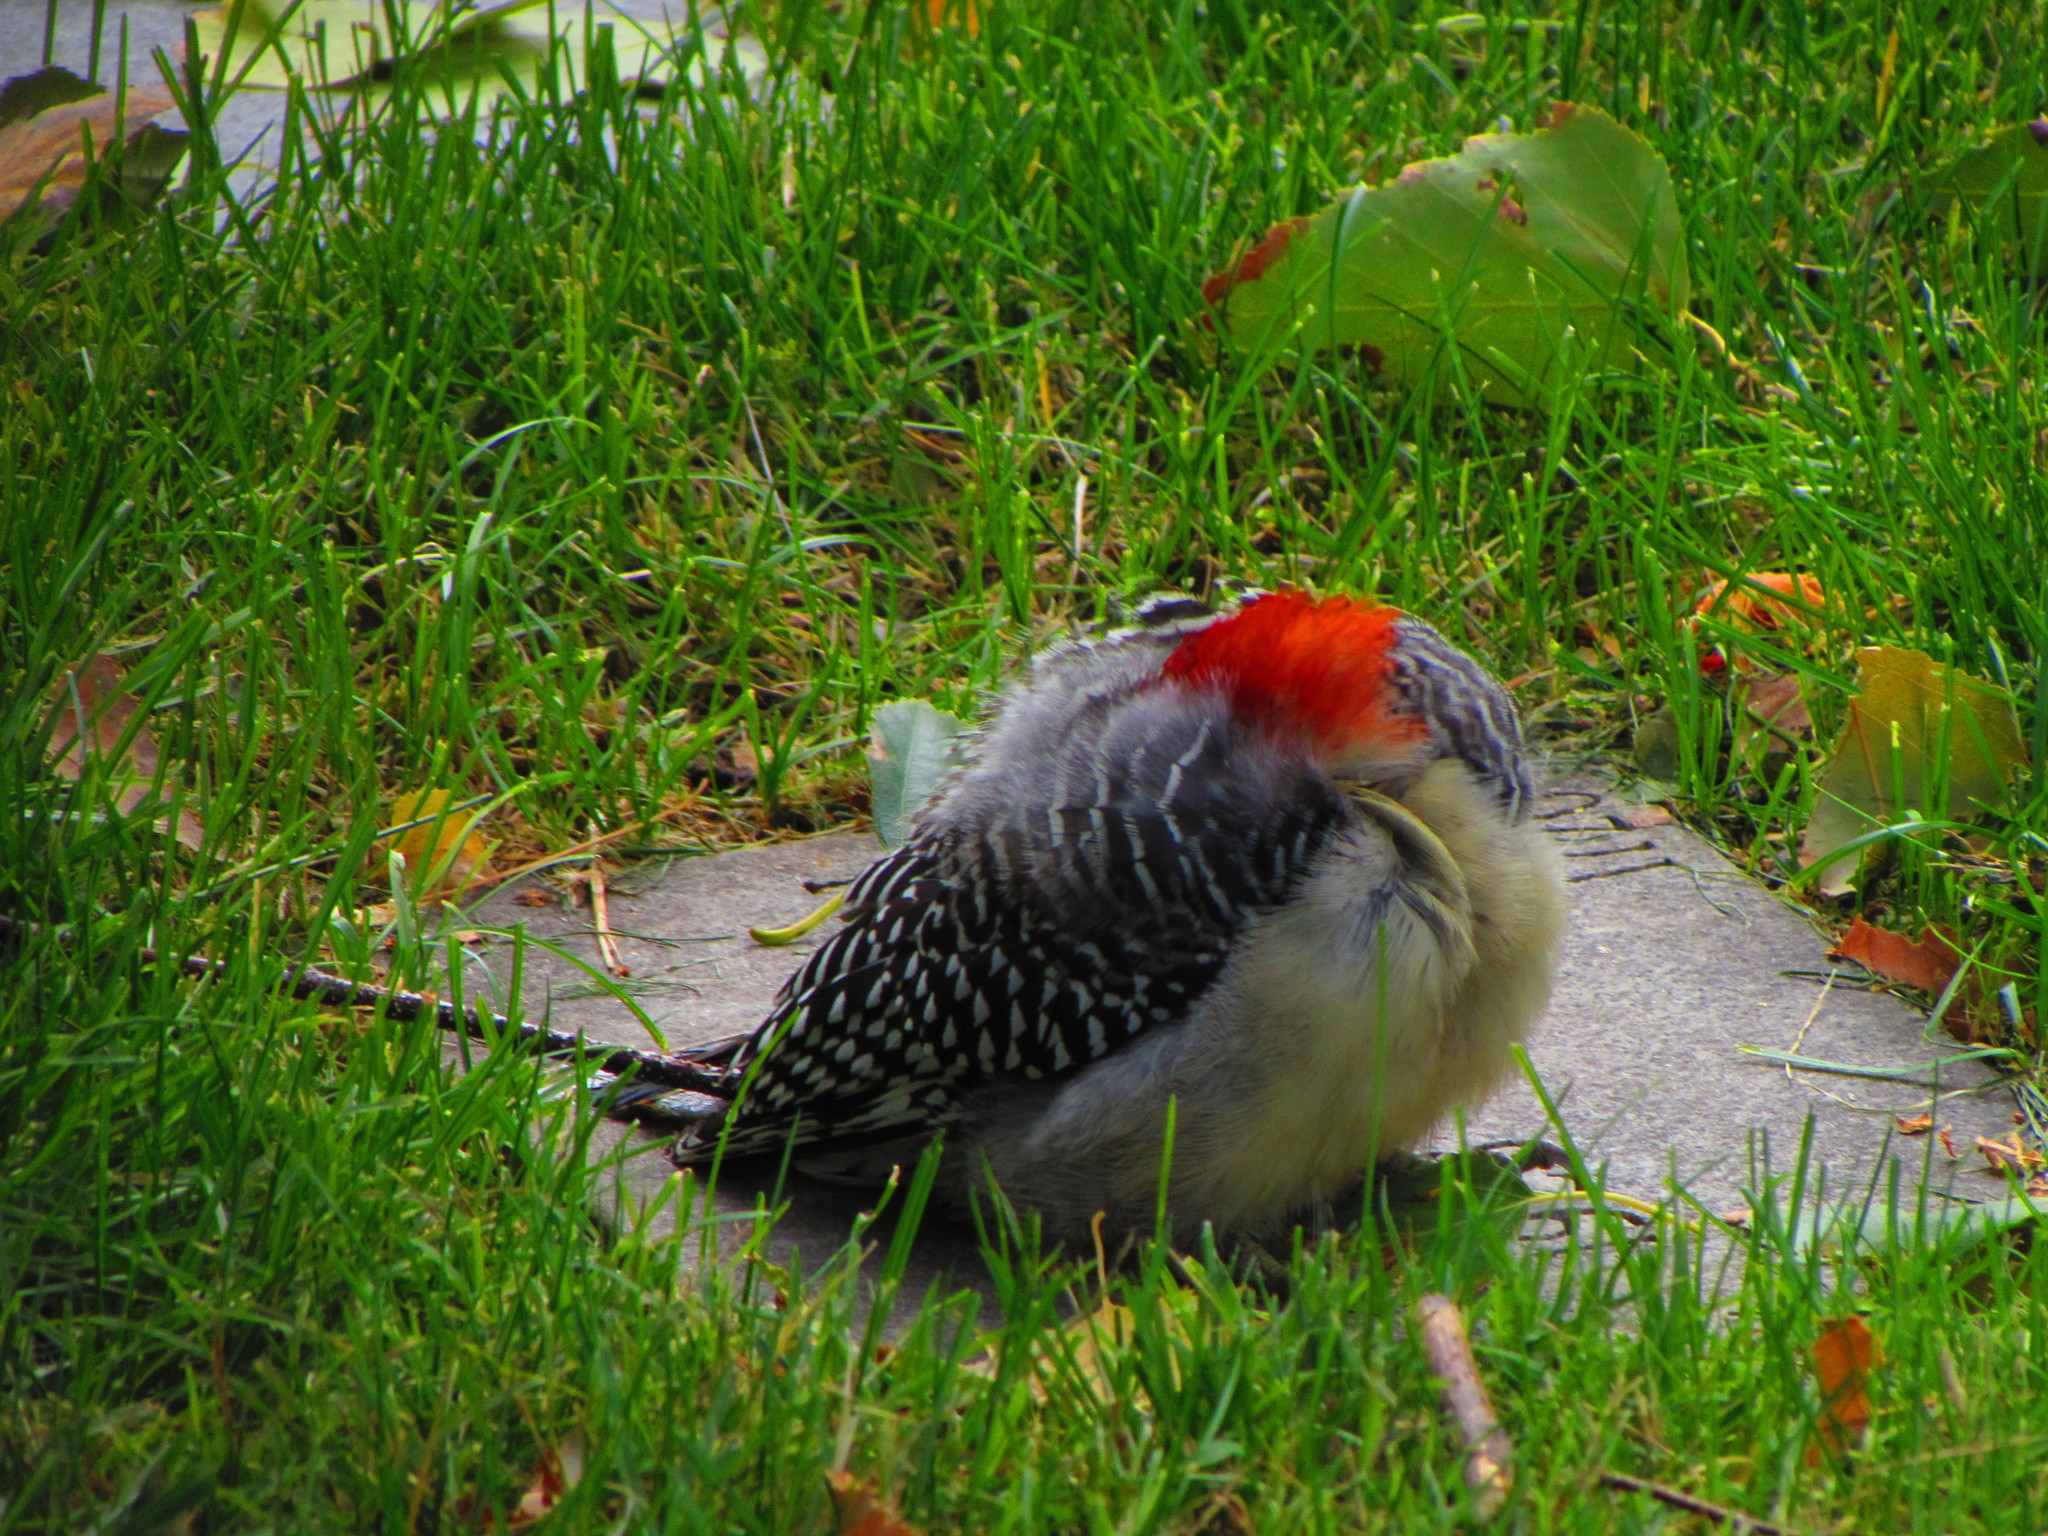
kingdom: Animalia
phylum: Chordata
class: Aves
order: Piciformes
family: Picidae
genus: Melanerpes
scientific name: Melanerpes carolinus
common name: Red-bellied woodpecker
